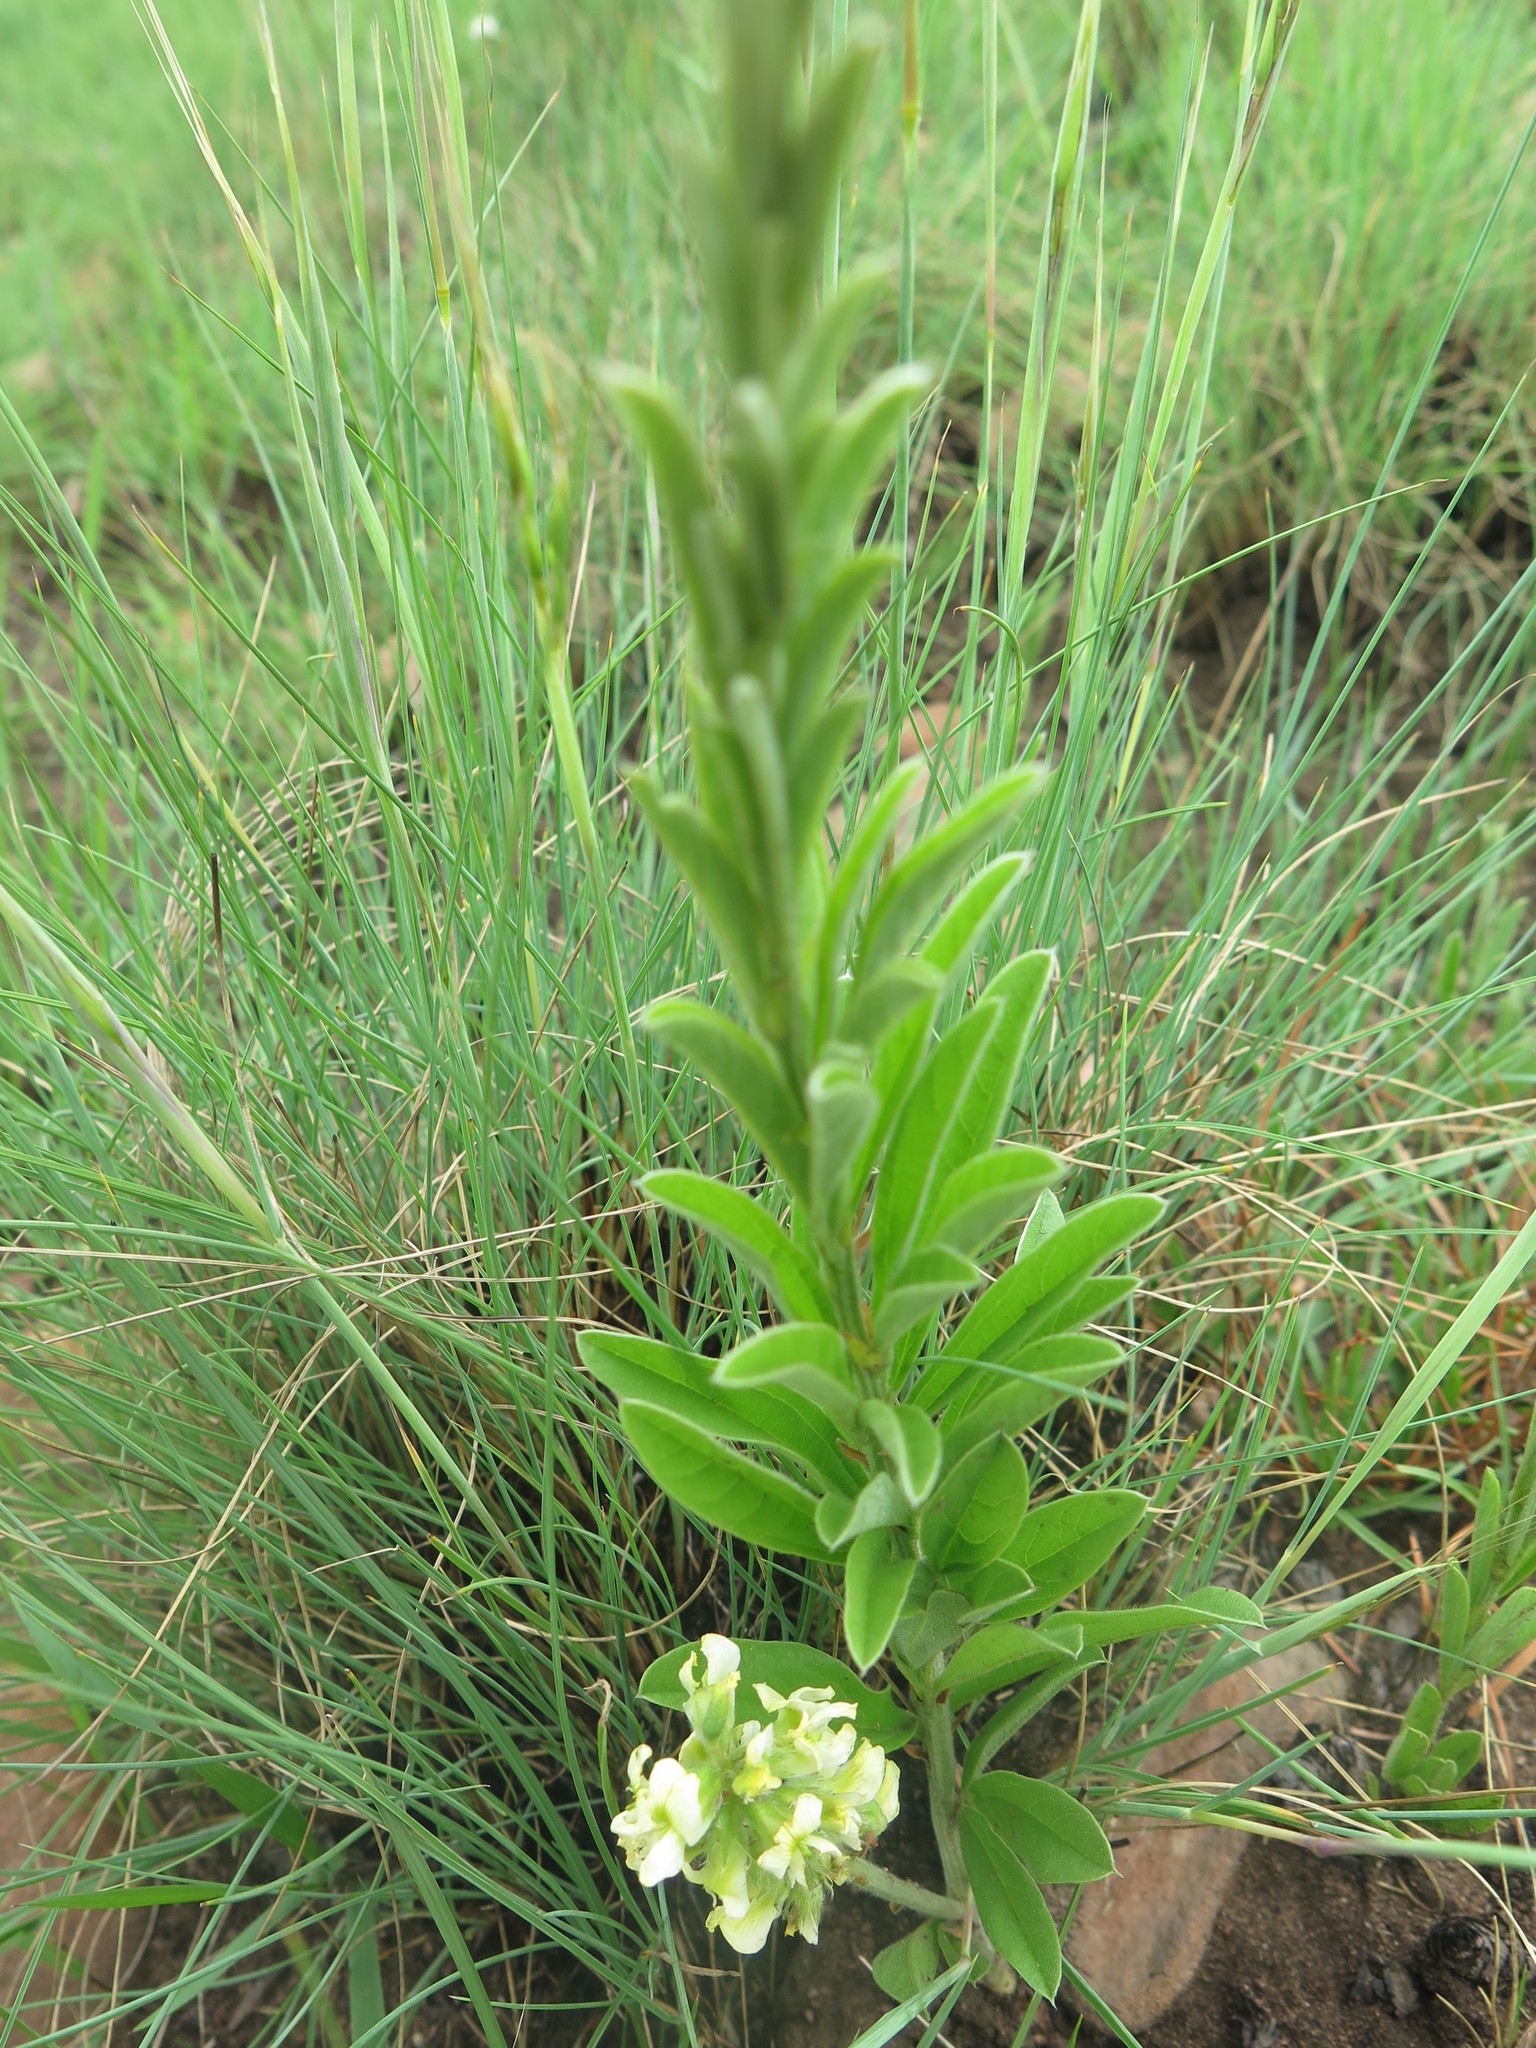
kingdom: Plantae
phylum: Tracheophyta
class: Magnoliopsida
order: Fabales
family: Fabaceae
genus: Eriosema
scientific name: Eriosema kraussianum
